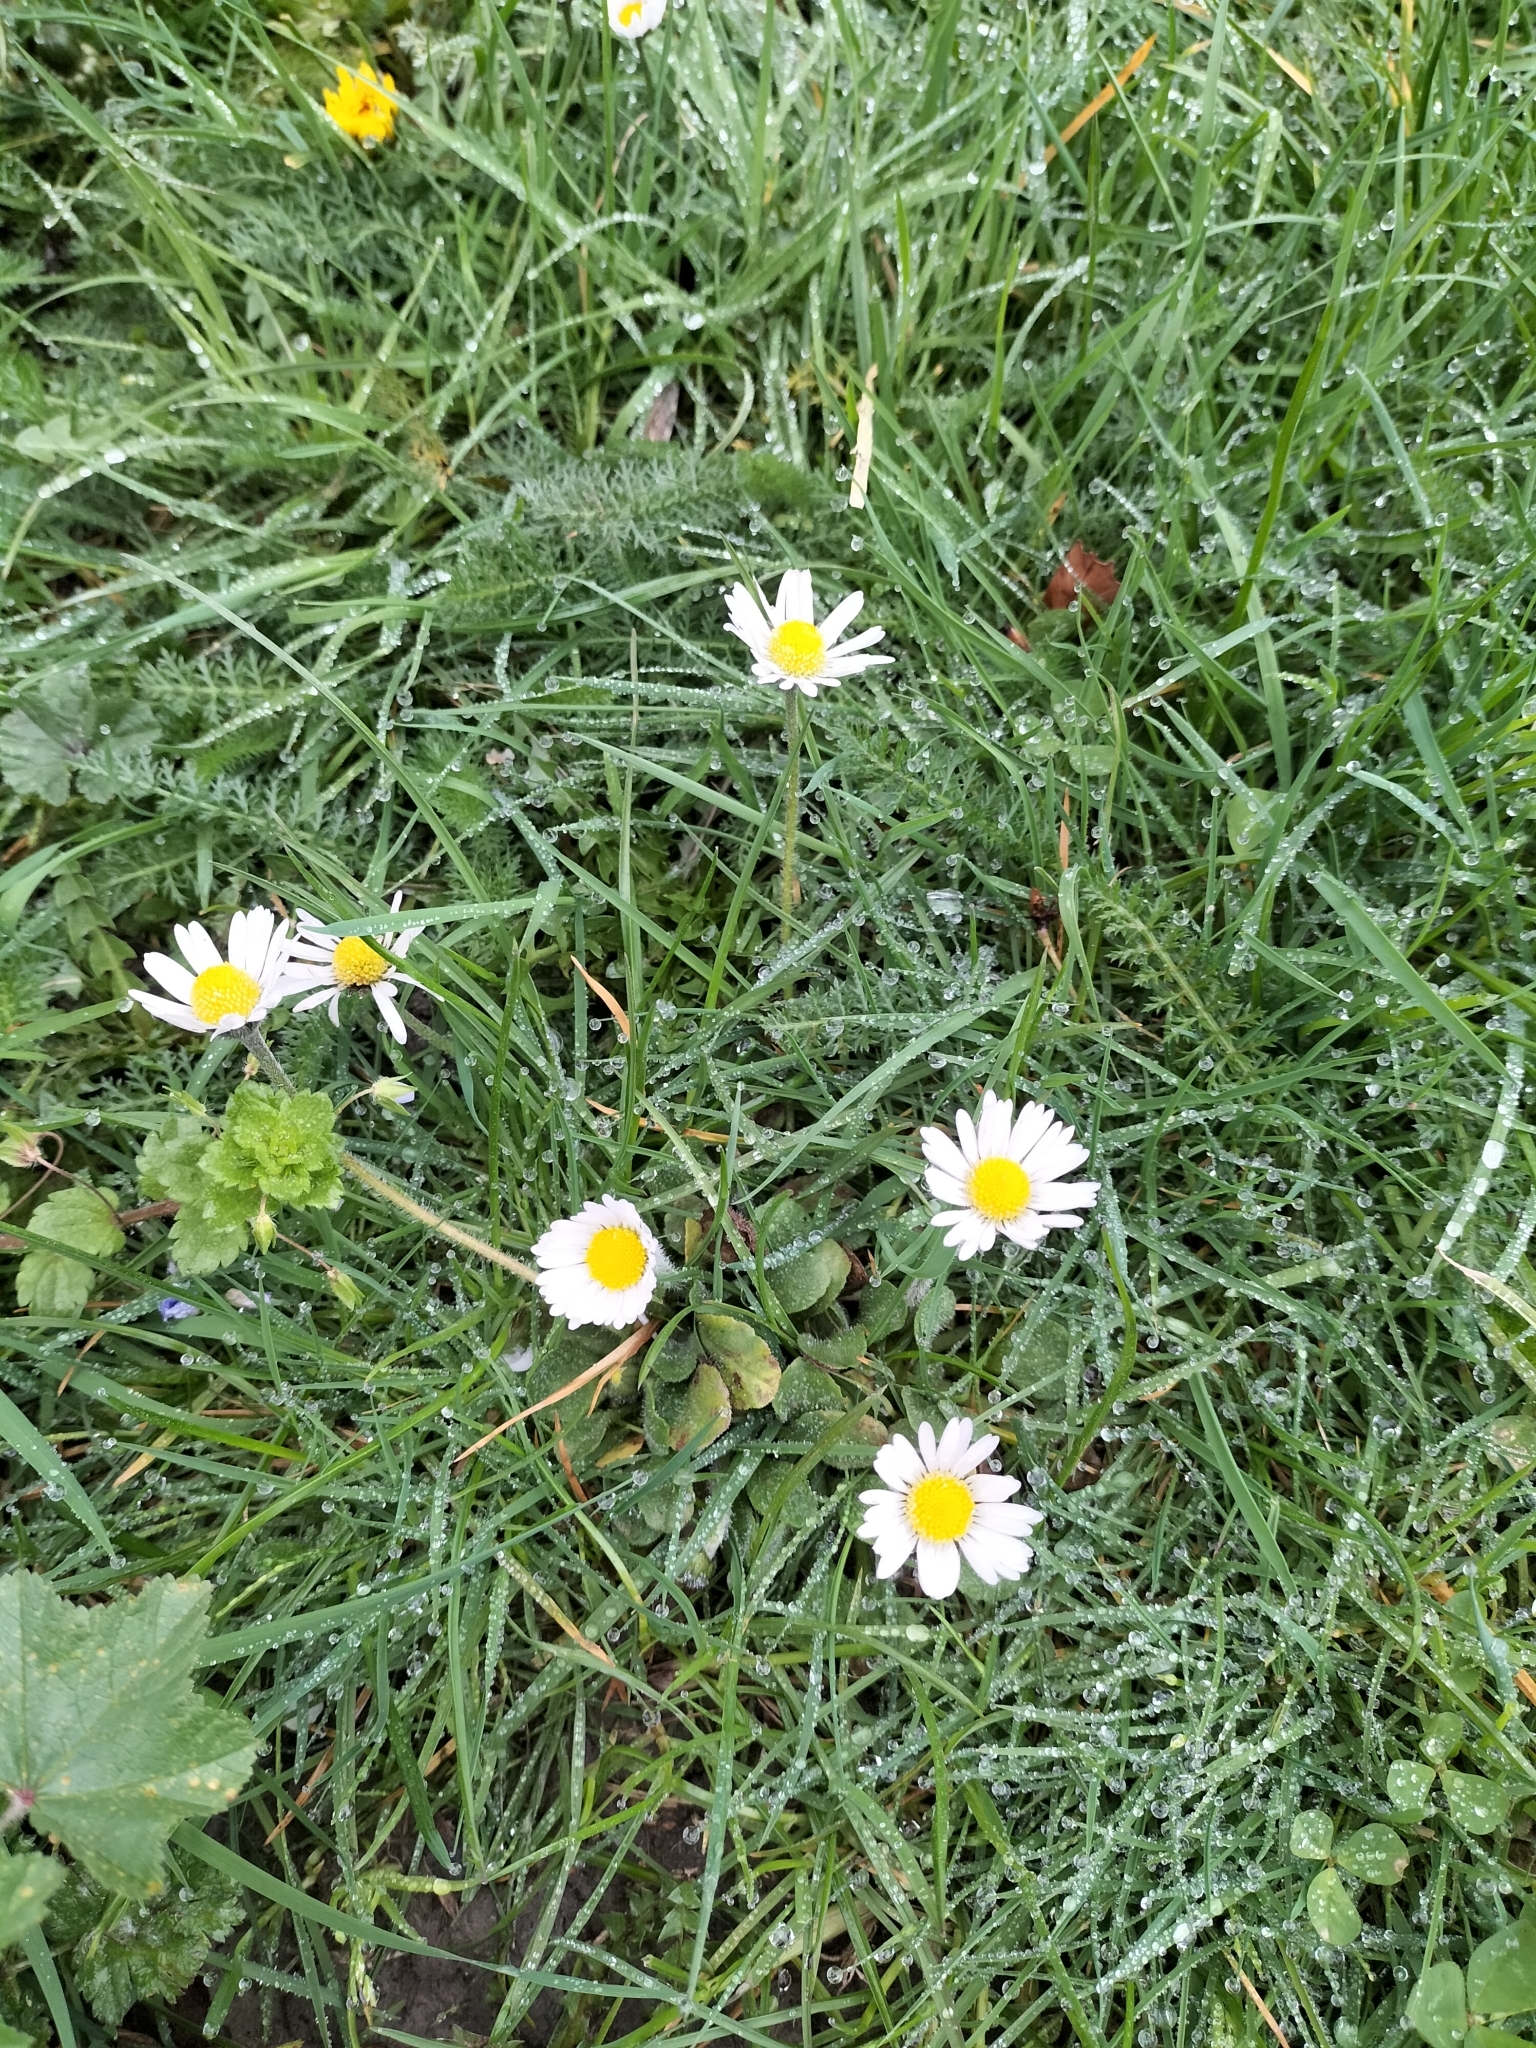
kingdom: Plantae
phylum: Tracheophyta
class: Magnoliopsida
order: Asterales
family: Asteraceae
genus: Bellis
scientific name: Bellis perennis
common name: Lawndaisy
